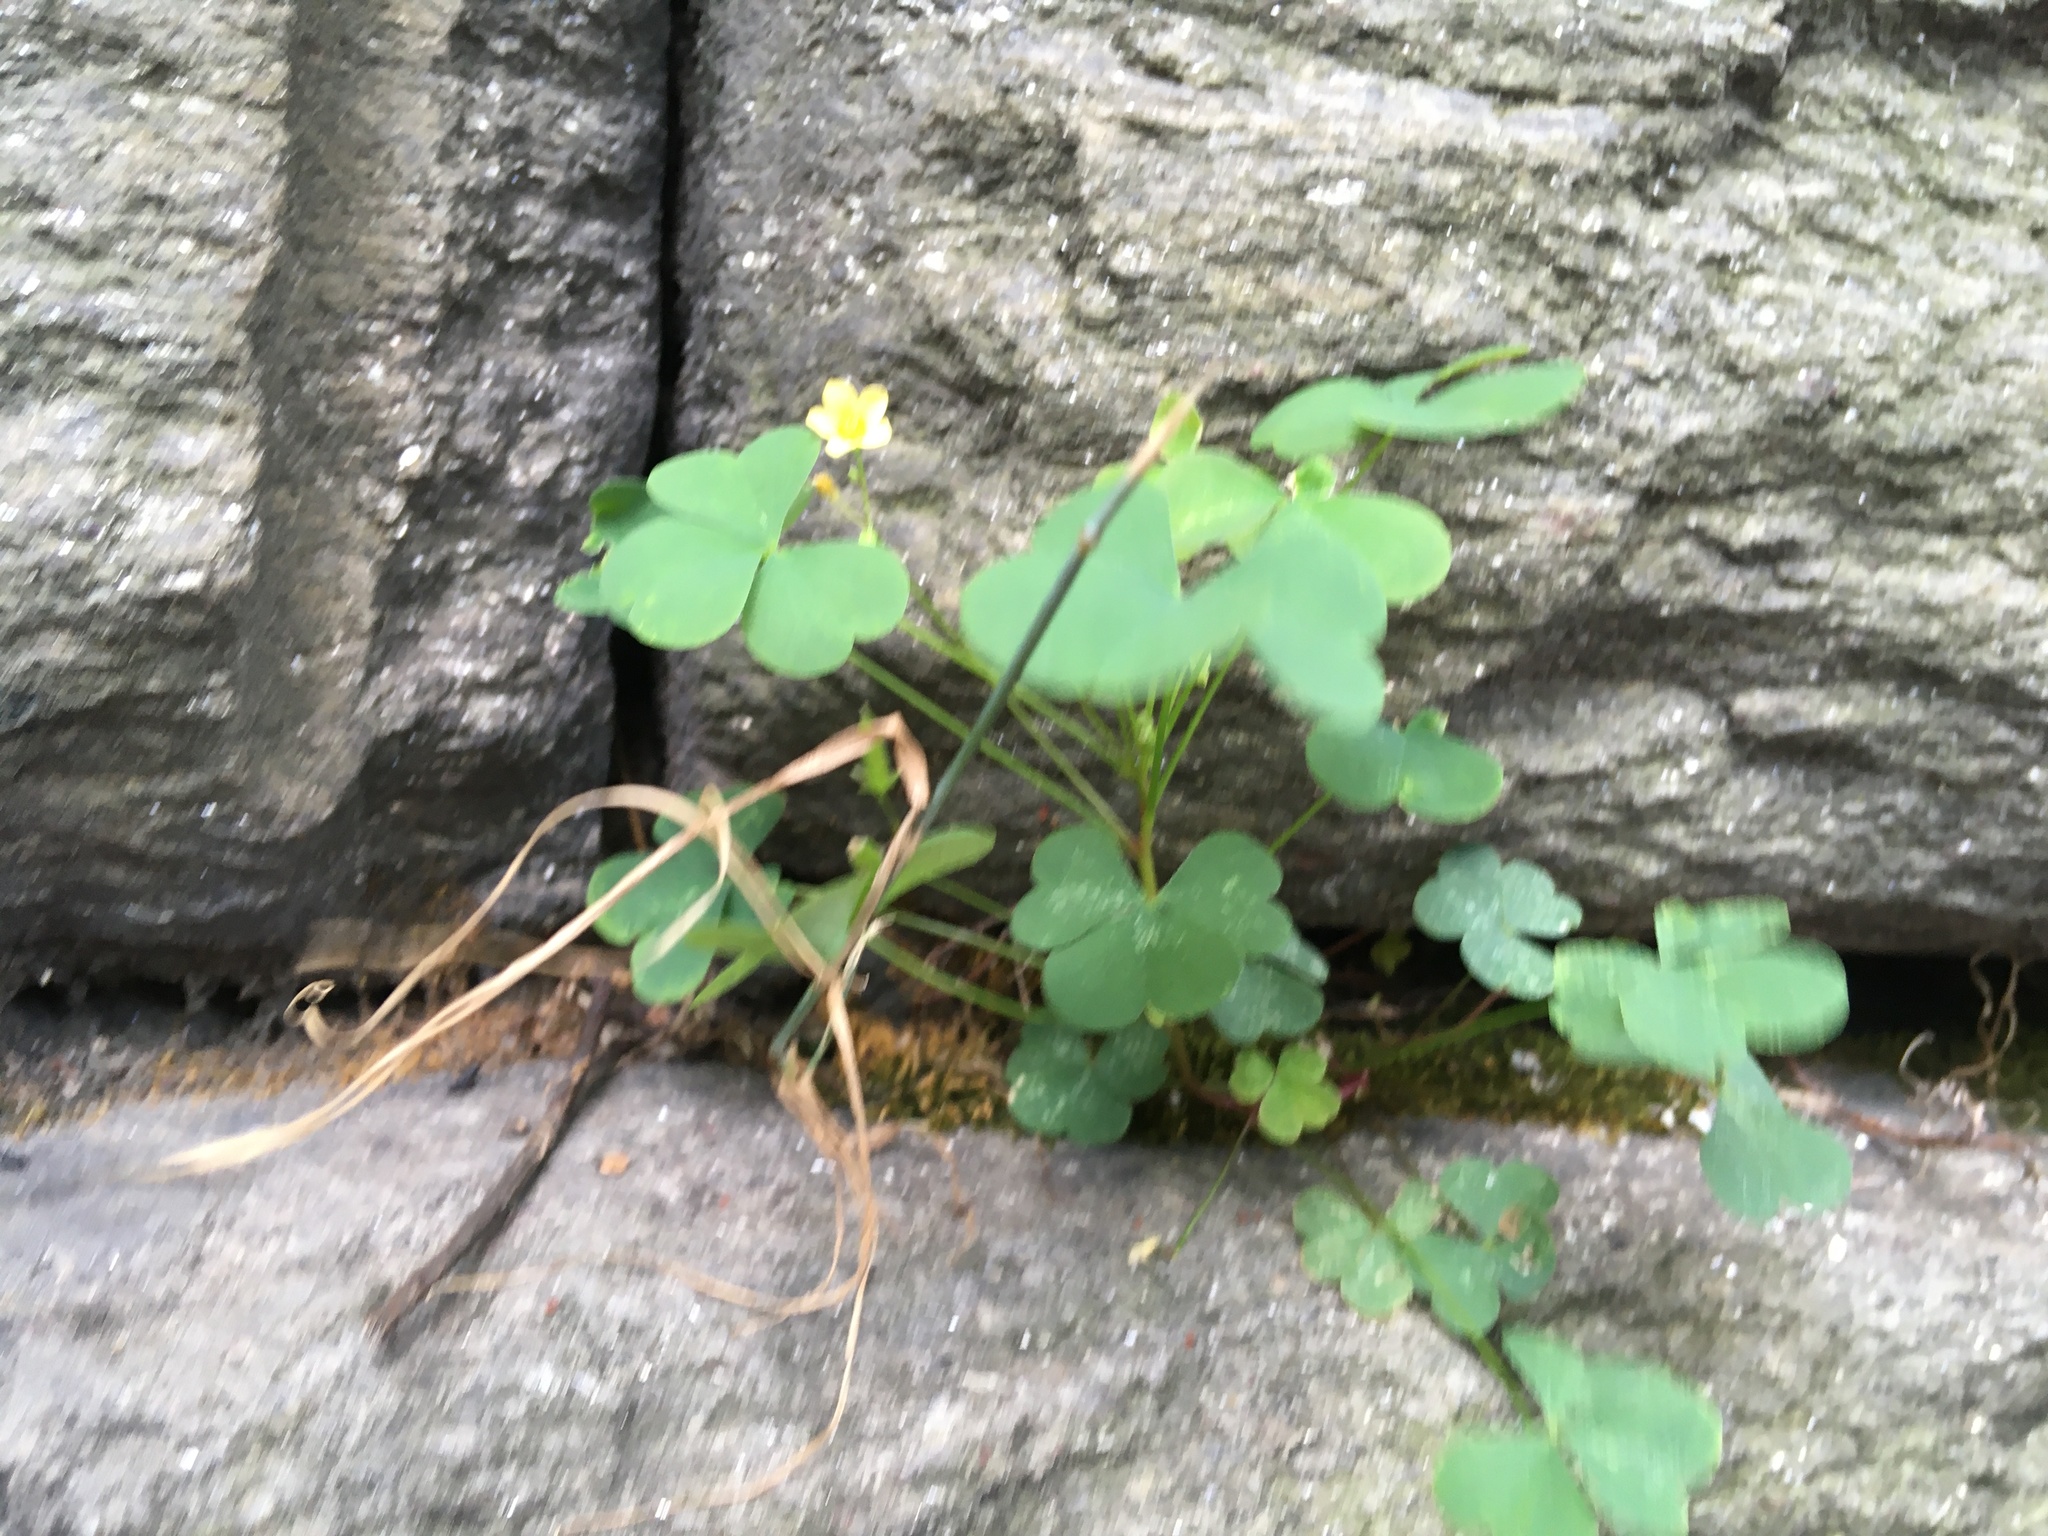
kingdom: Plantae
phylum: Tracheophyta
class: Magnoliopsida
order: Oxalidales
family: Oxalidaceae
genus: Oxalis
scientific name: Oxalis corniculata
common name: Procumbent yellow-sorrel
